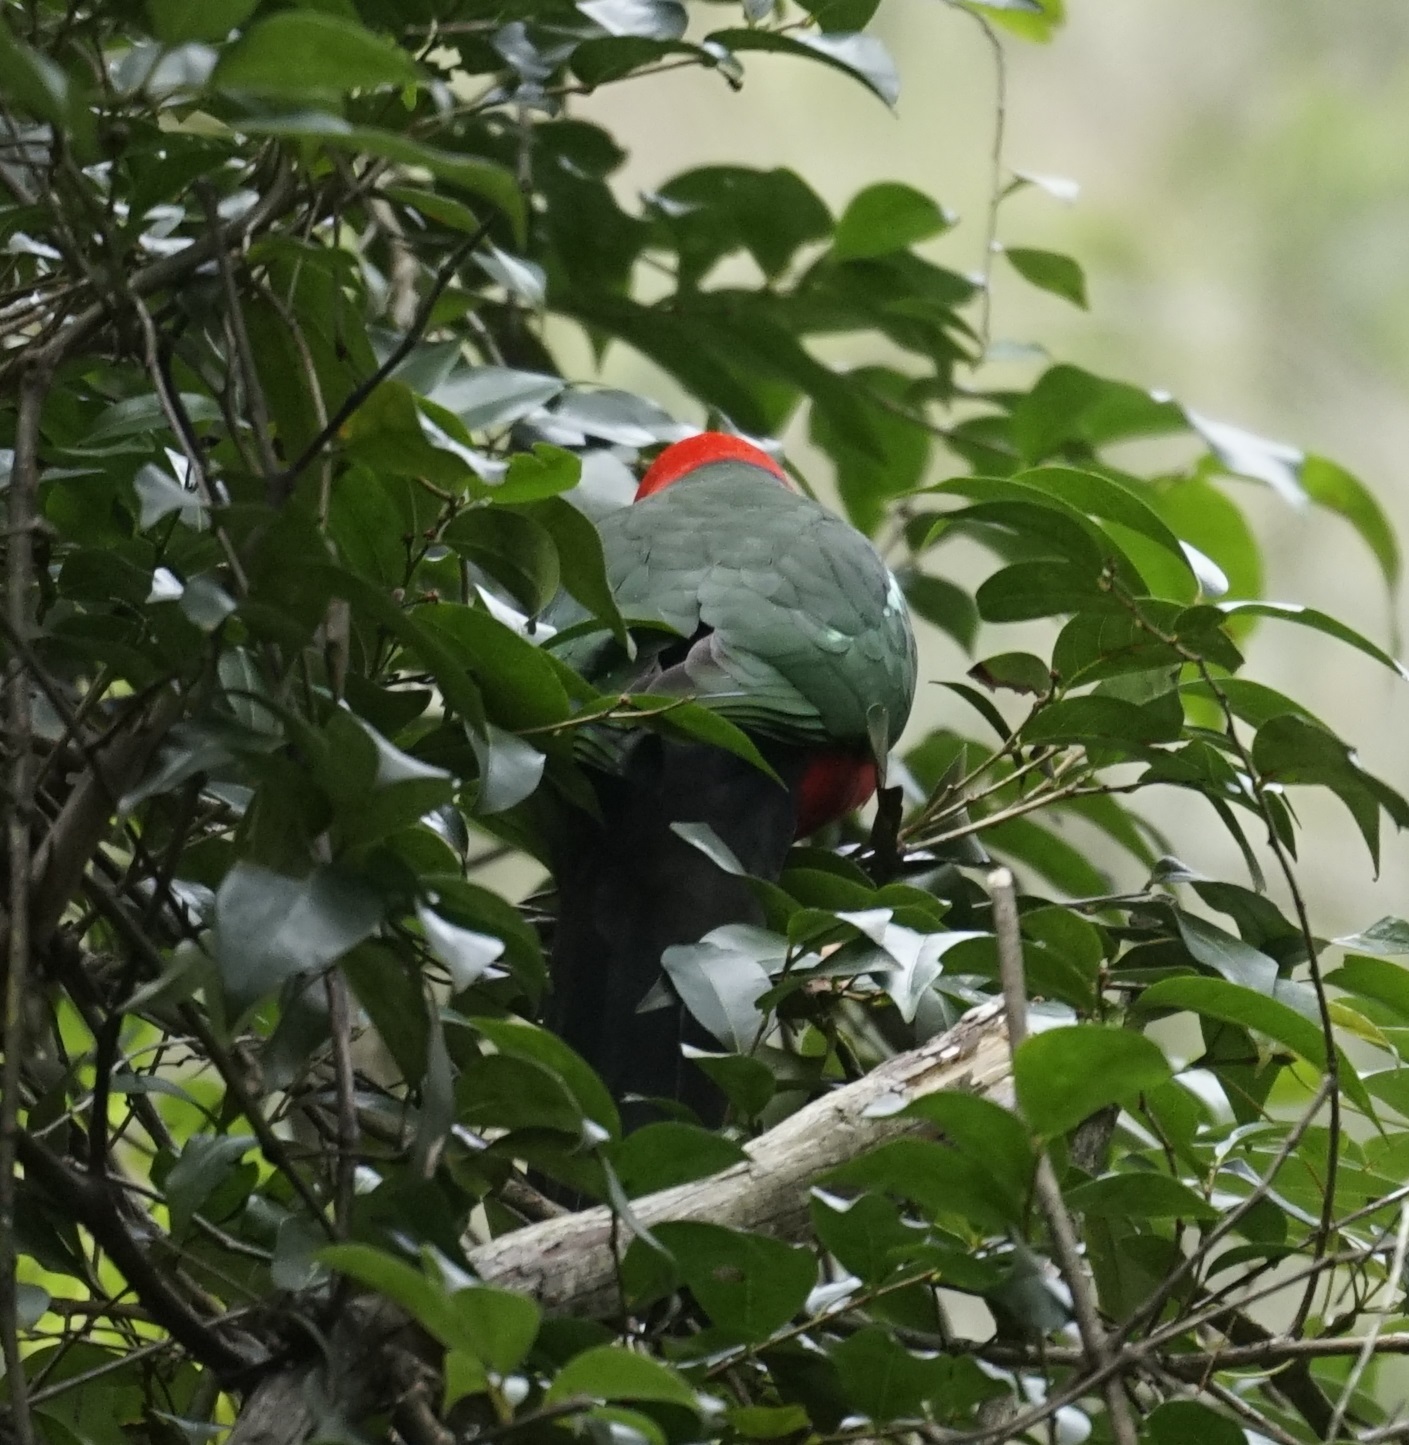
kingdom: Animalia
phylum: Chordata
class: Aves
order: Psittaciformes
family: Psittacidae
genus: Alisterus
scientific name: Alisterus scapularis
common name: Australian king parrot
